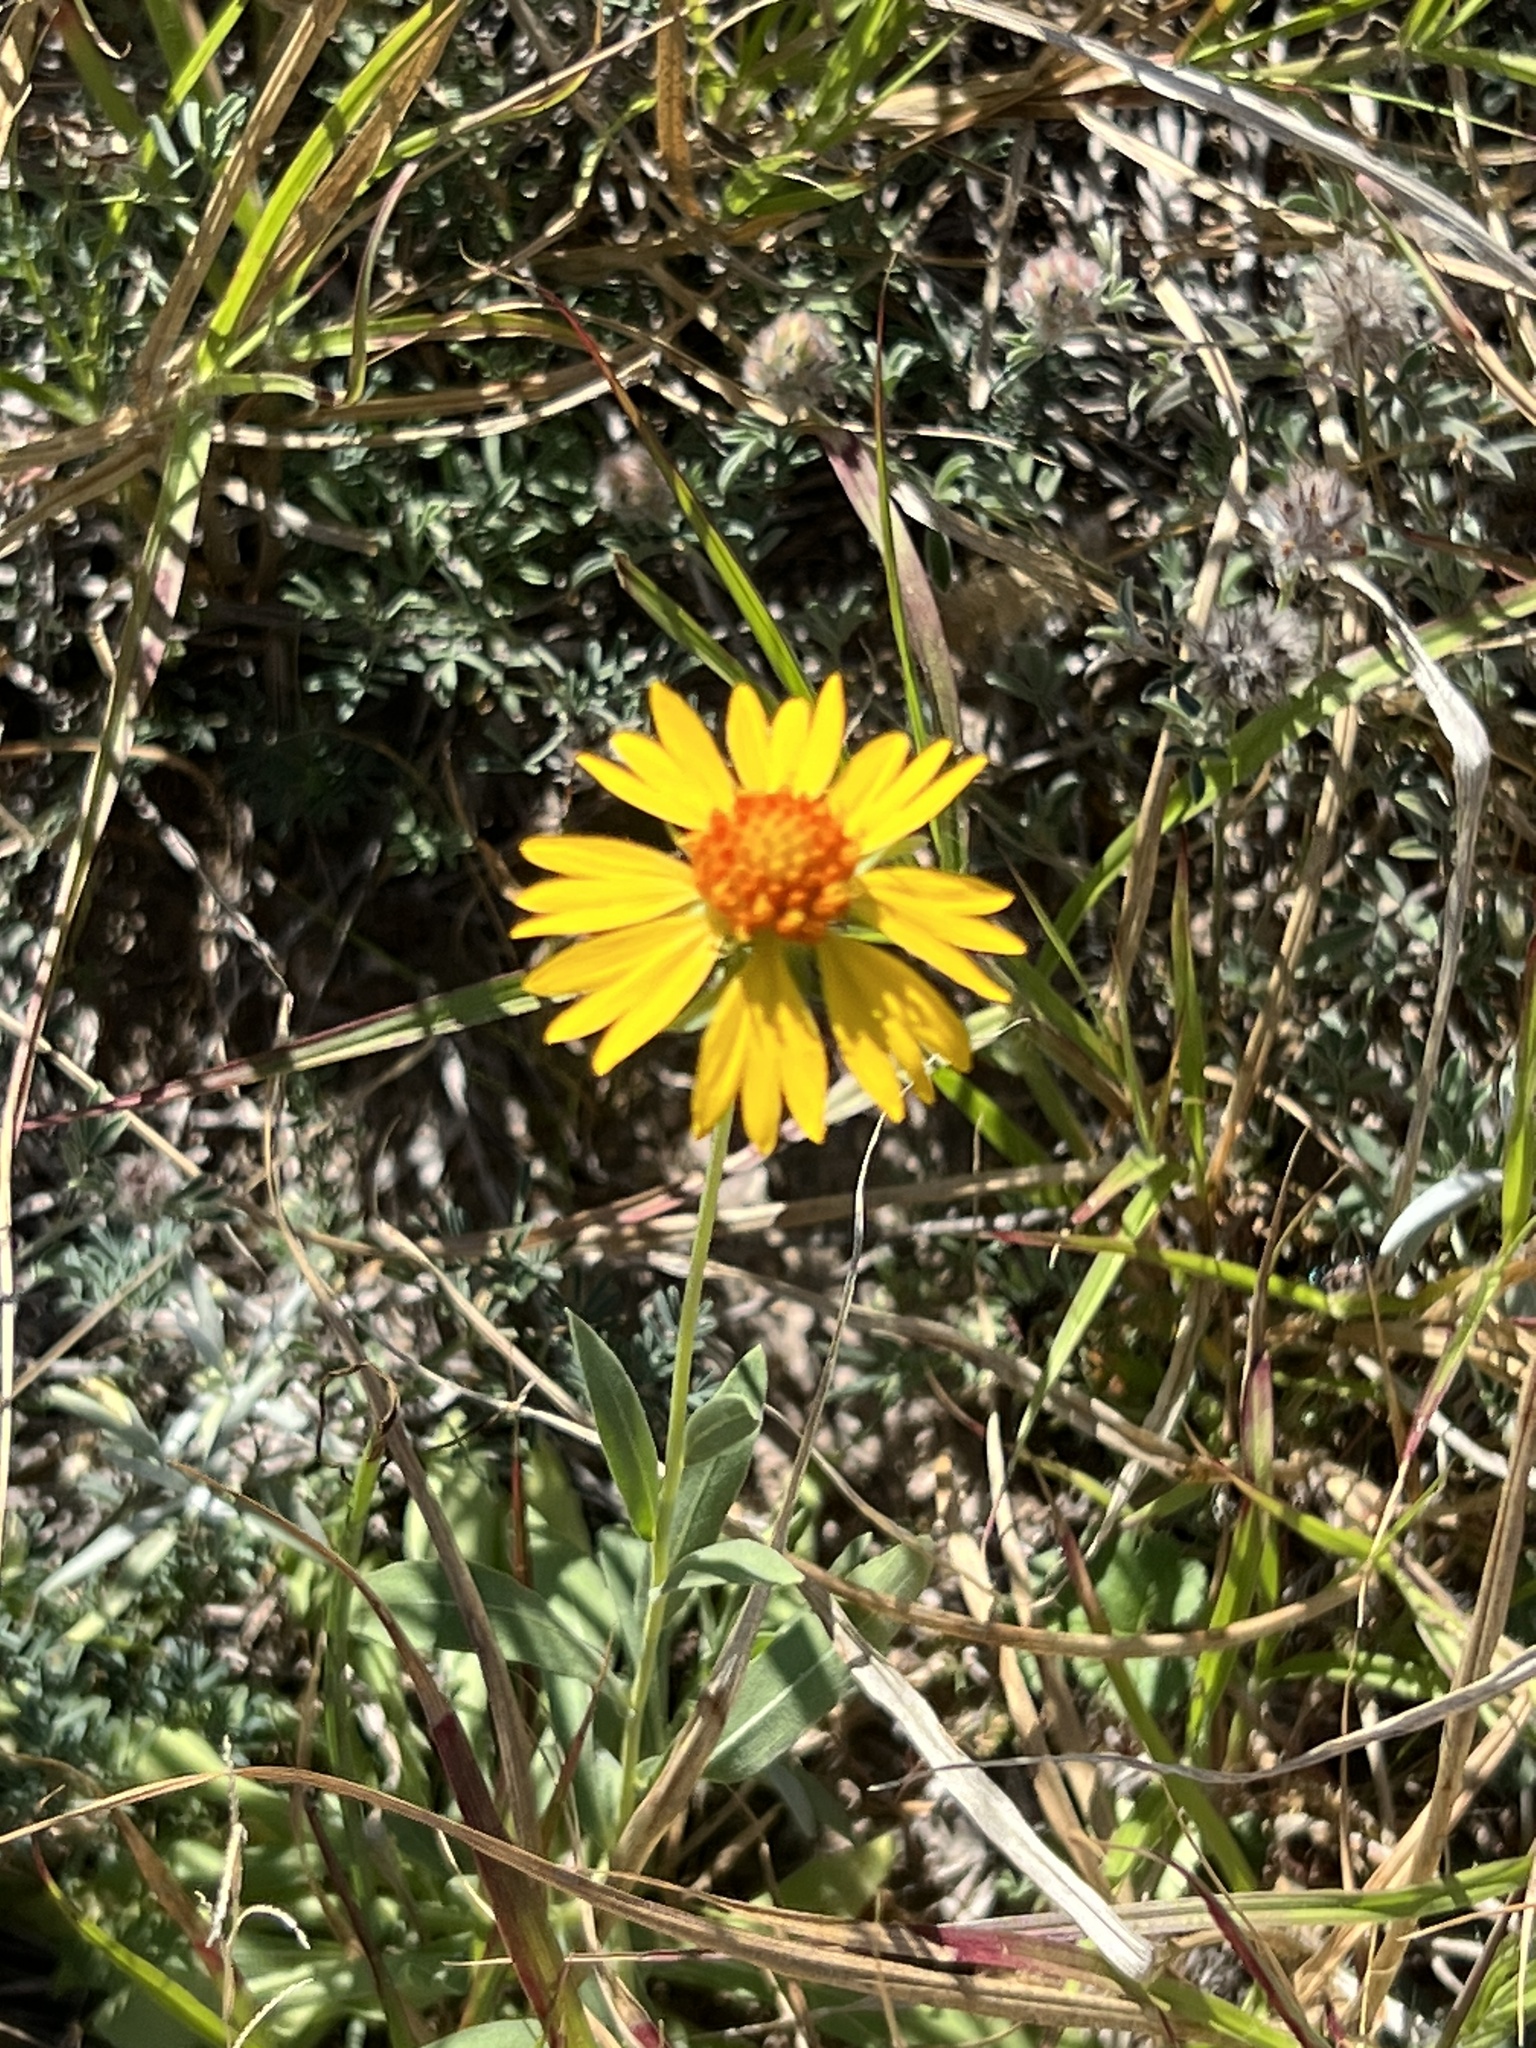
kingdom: Plantae
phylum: Tracheophyta
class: Magnoliopsida
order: Asterales
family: Asteraceae
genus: Gaillardia
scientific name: Gaillardia coahuilensis
